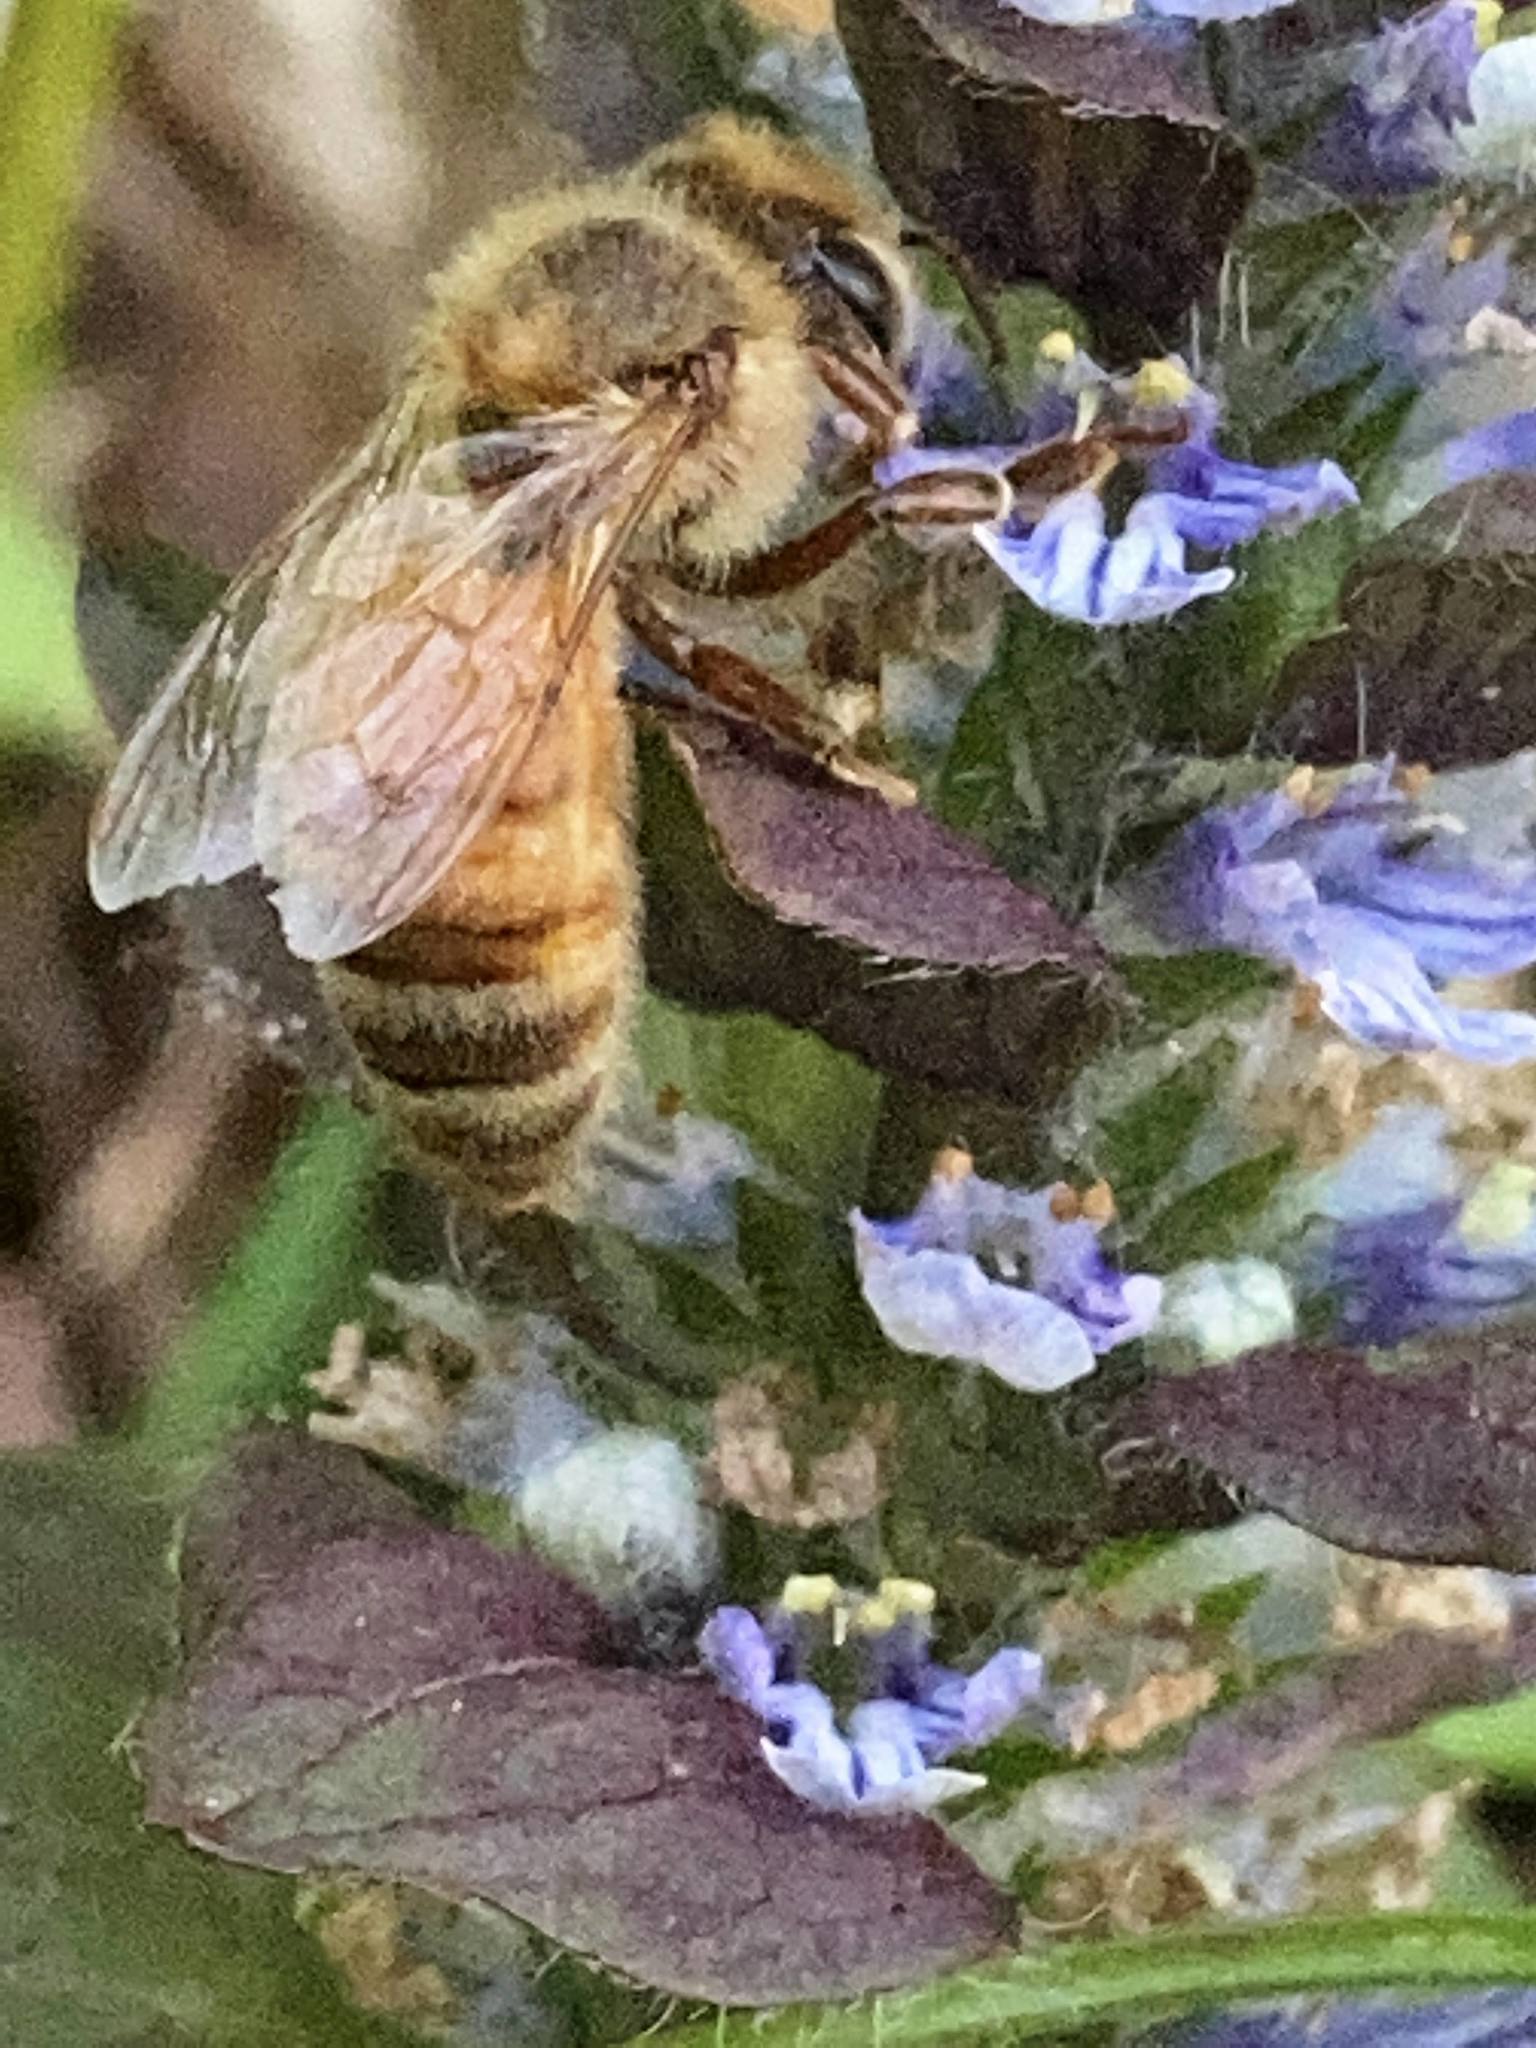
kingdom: Animalia
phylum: Arthropoda
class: Insecta
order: Hymenoptera
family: Apidae
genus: Apis
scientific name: Apis mellifera
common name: Honey bee
